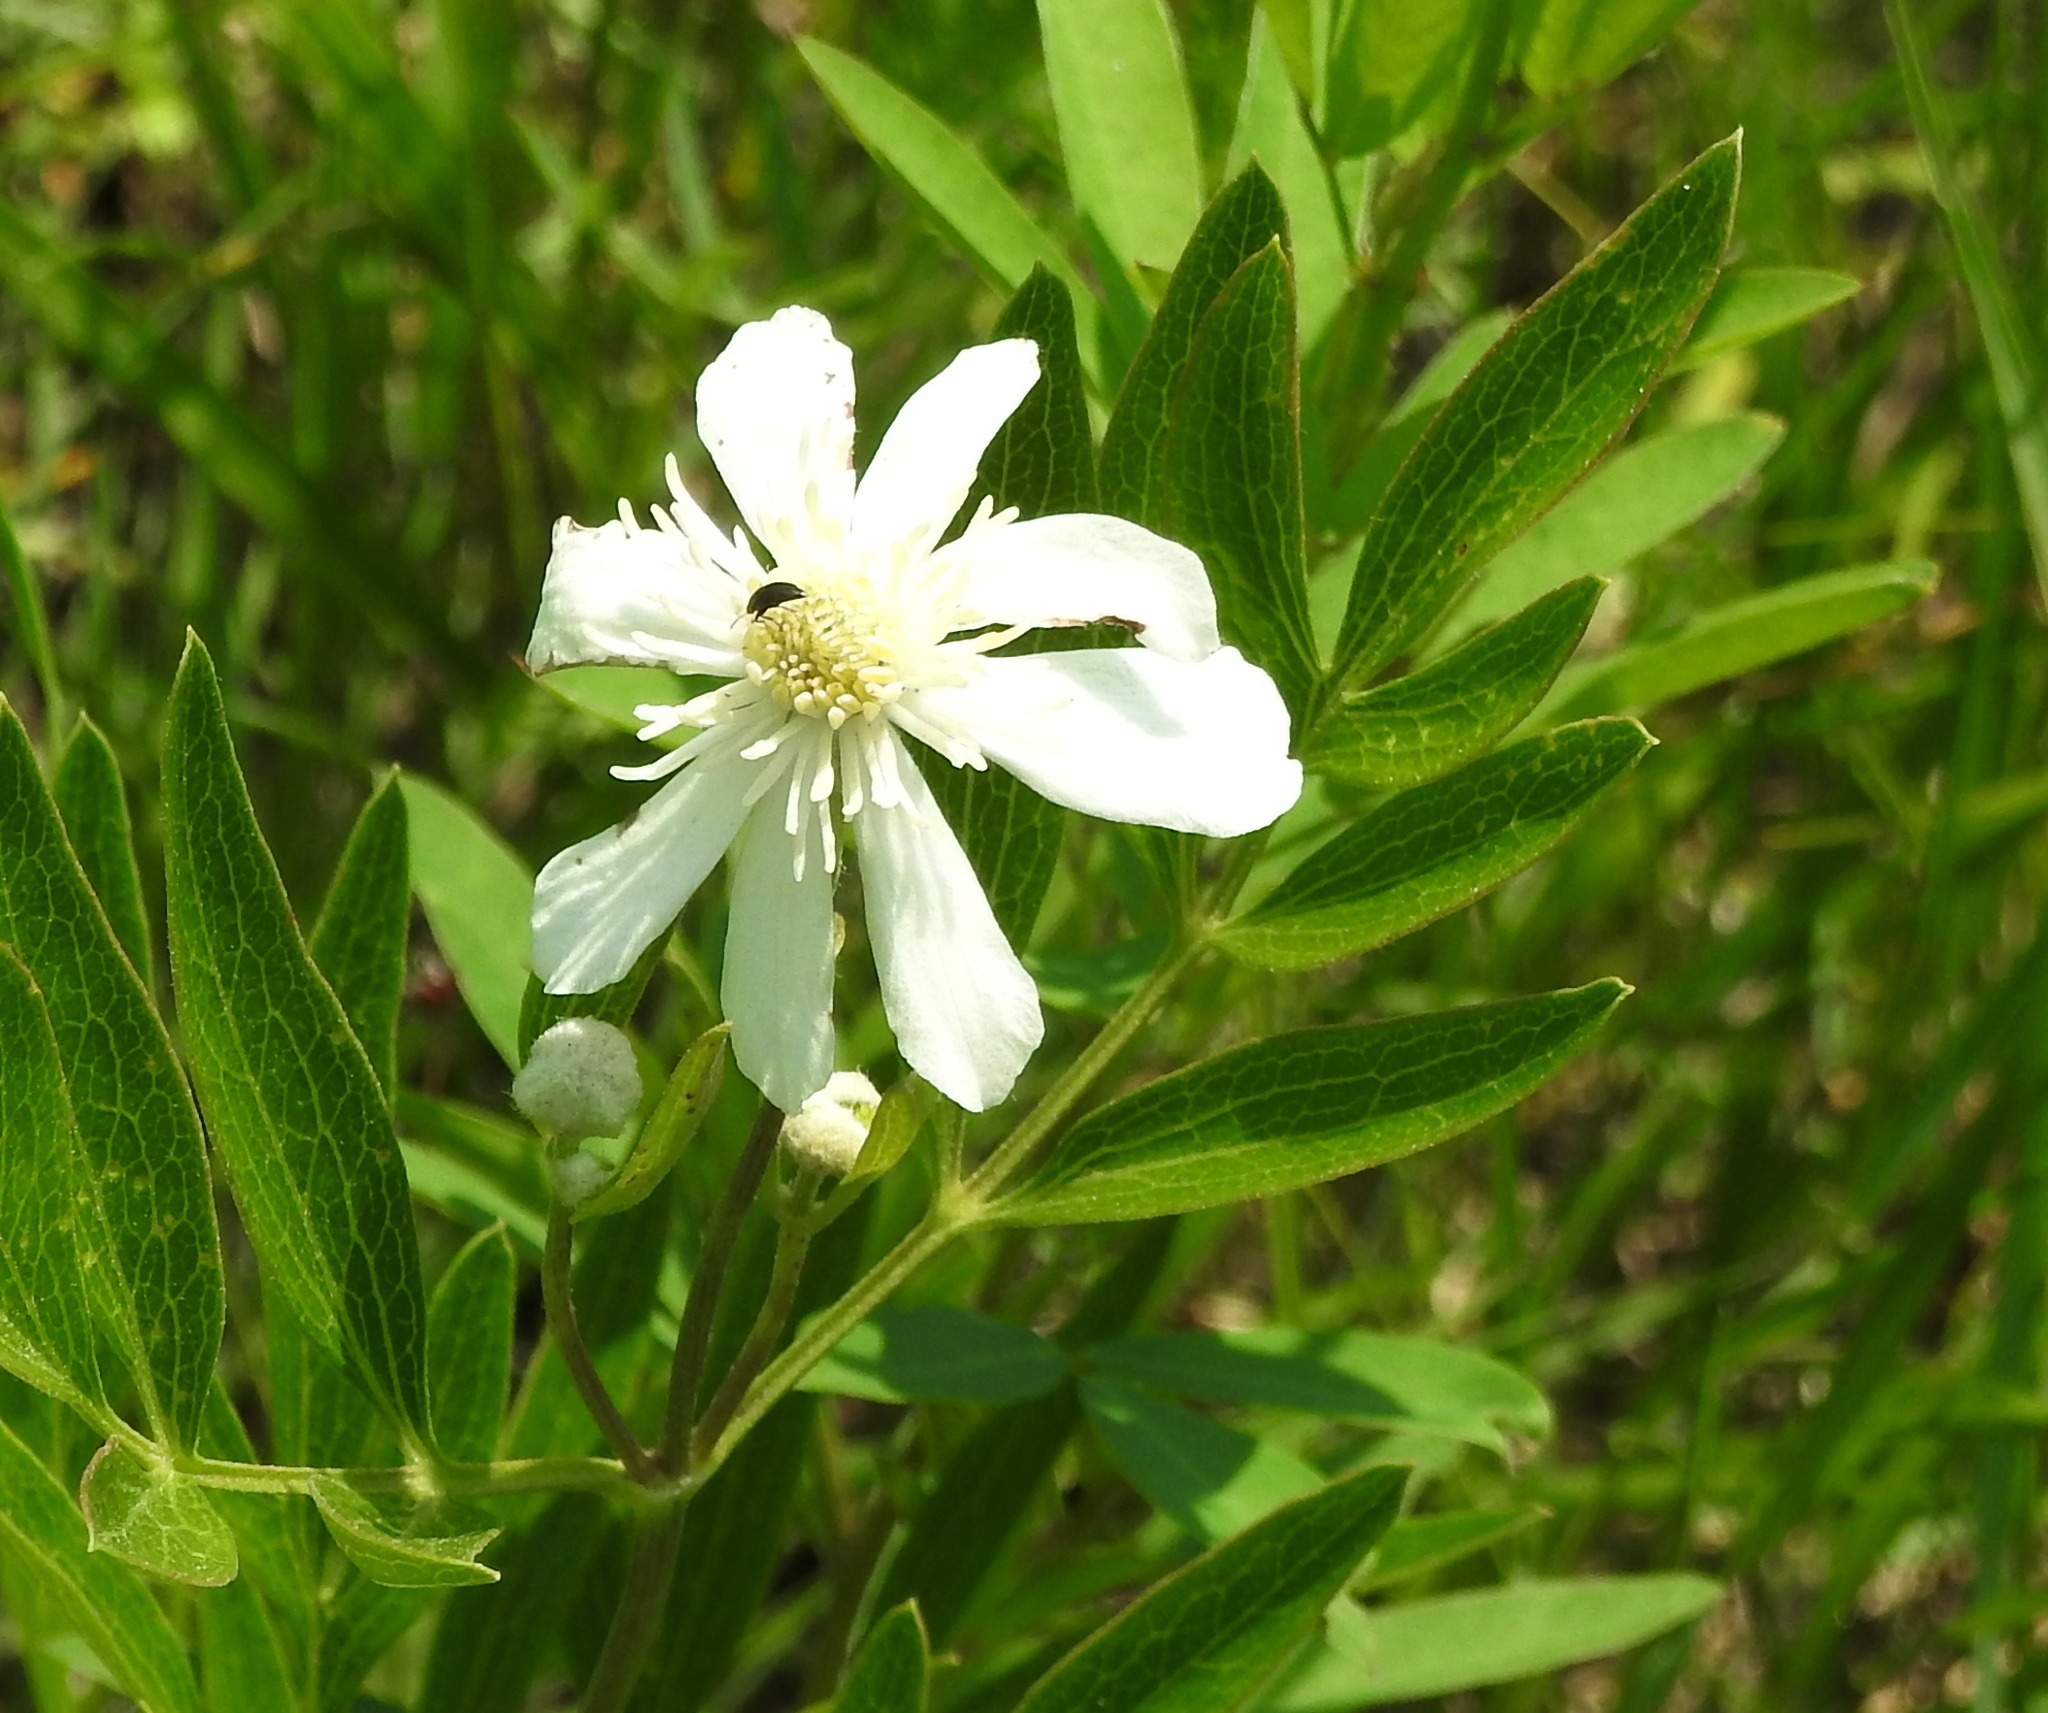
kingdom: Plantae
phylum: Tracheophyta
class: Magnoliopsida
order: Ranunculales
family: Ranunculaceae
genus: Clematis
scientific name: Clematis hexapetala
